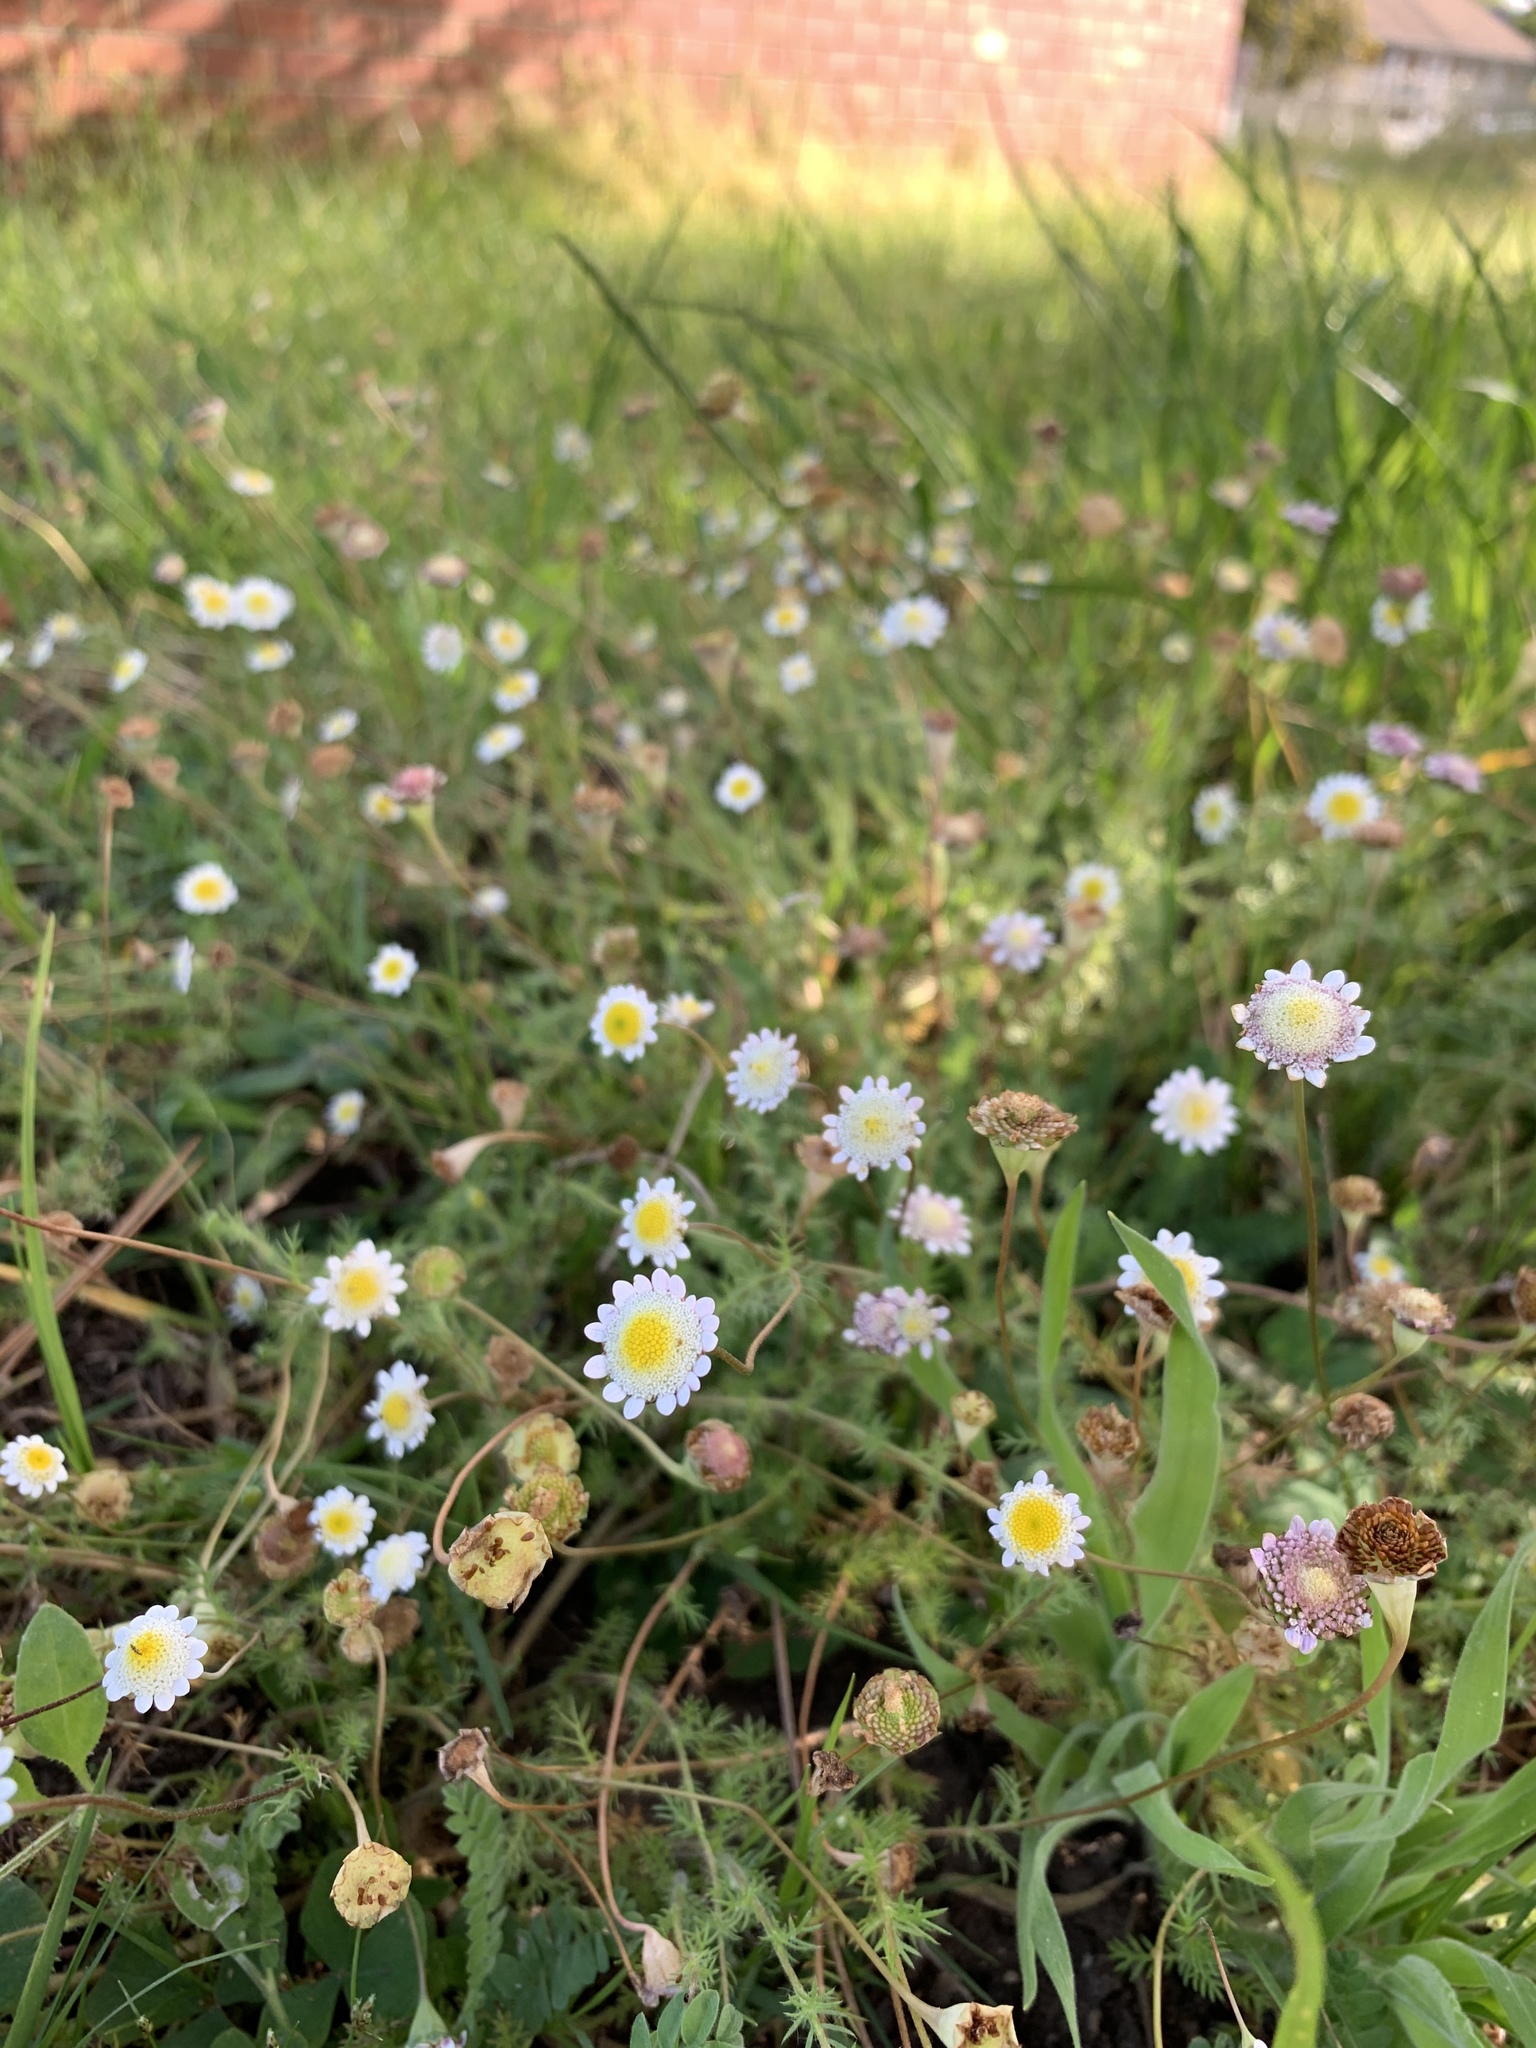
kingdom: Plantae
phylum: Tracheophyta
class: Magnoliopsida
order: Asterales
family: Asteraceae
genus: Cotula
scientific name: Cotula turbinata
